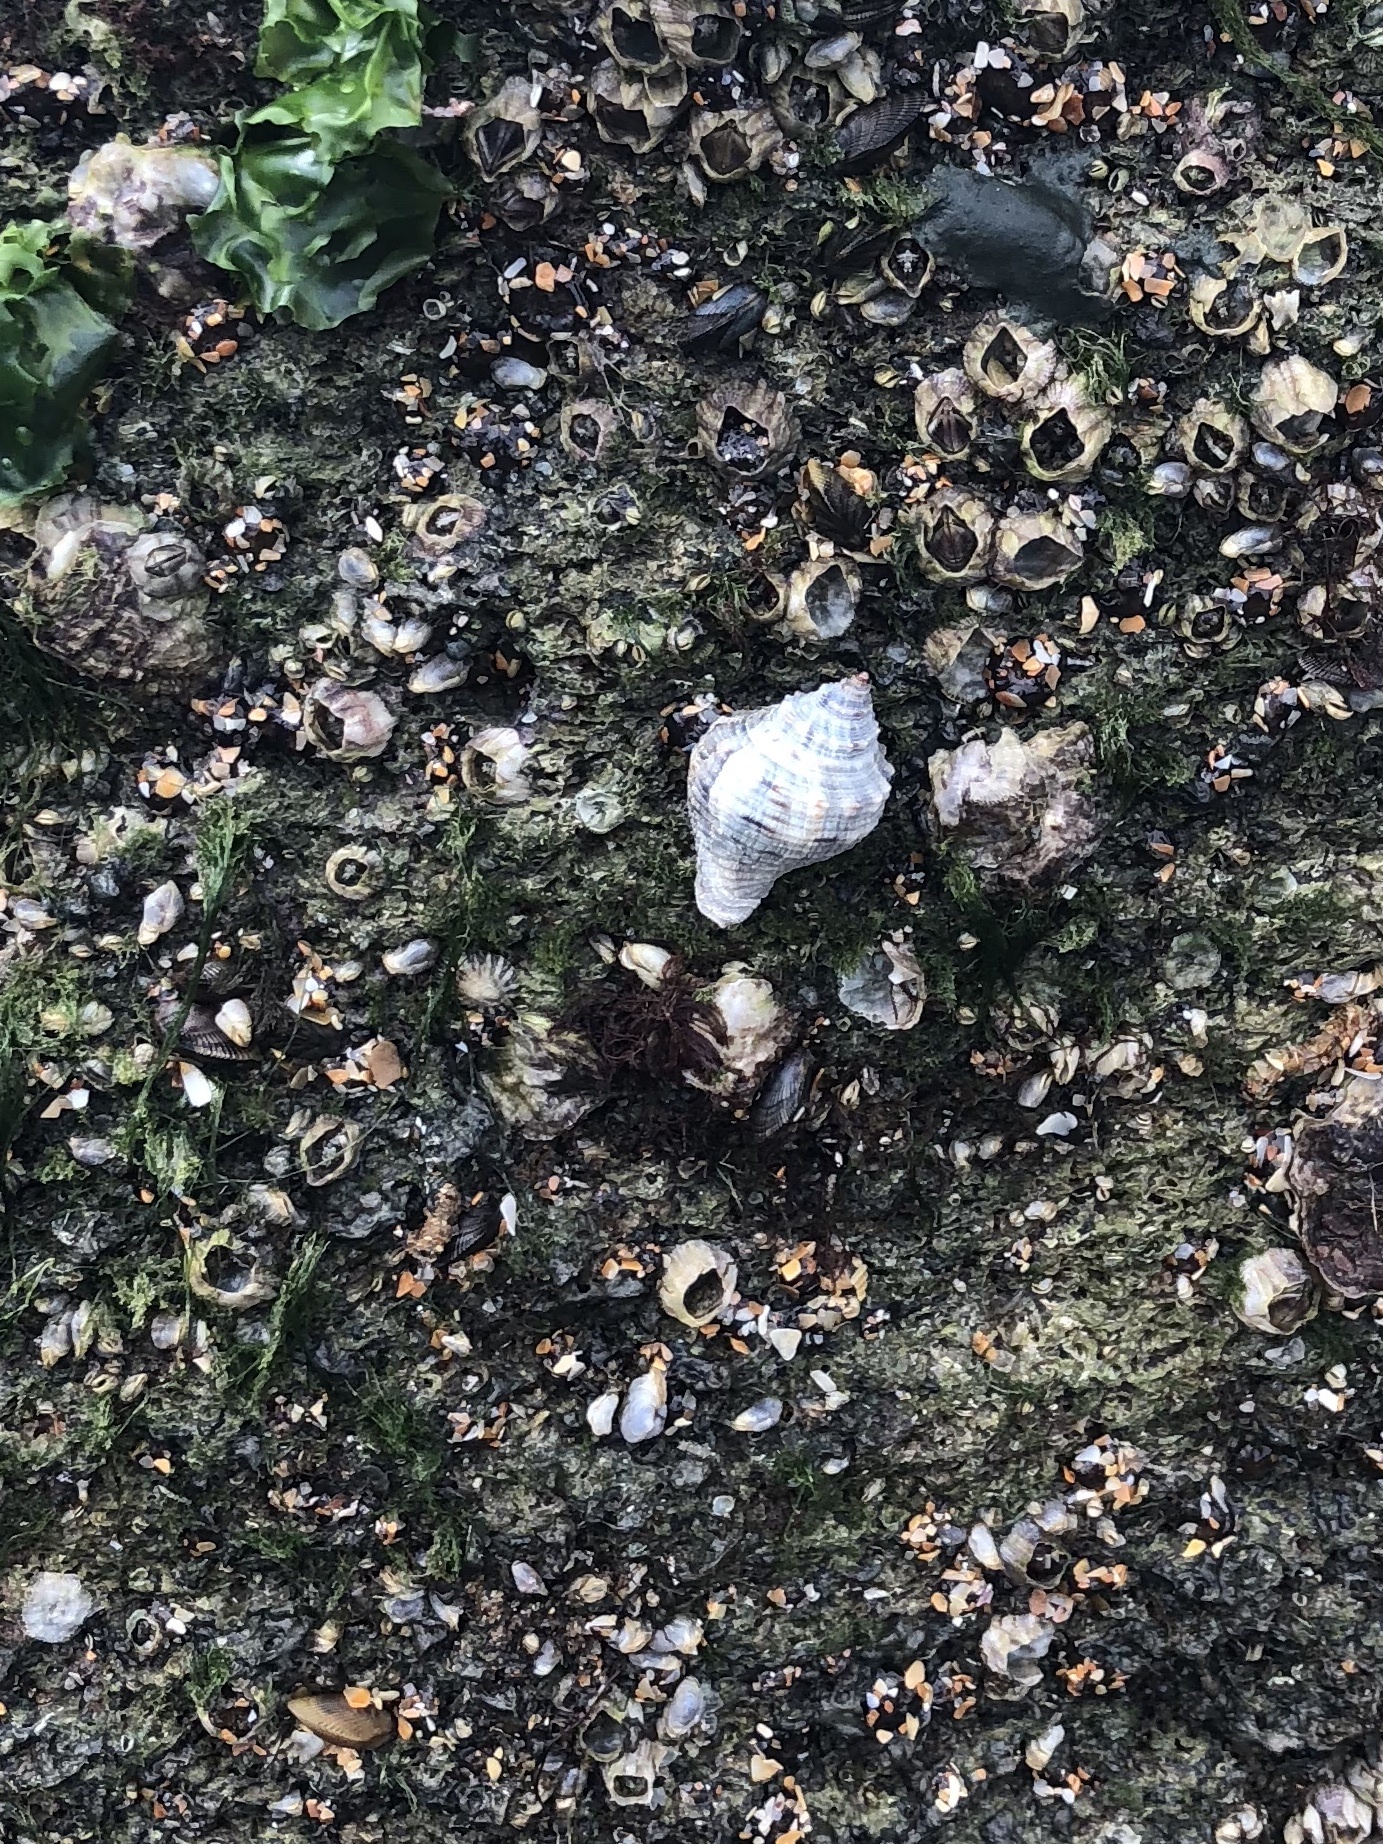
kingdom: Animalia
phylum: Mollusca
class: Gastropoda
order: Neogastropoda
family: Muricidae
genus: Stramonita
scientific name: Stramonita floridana
